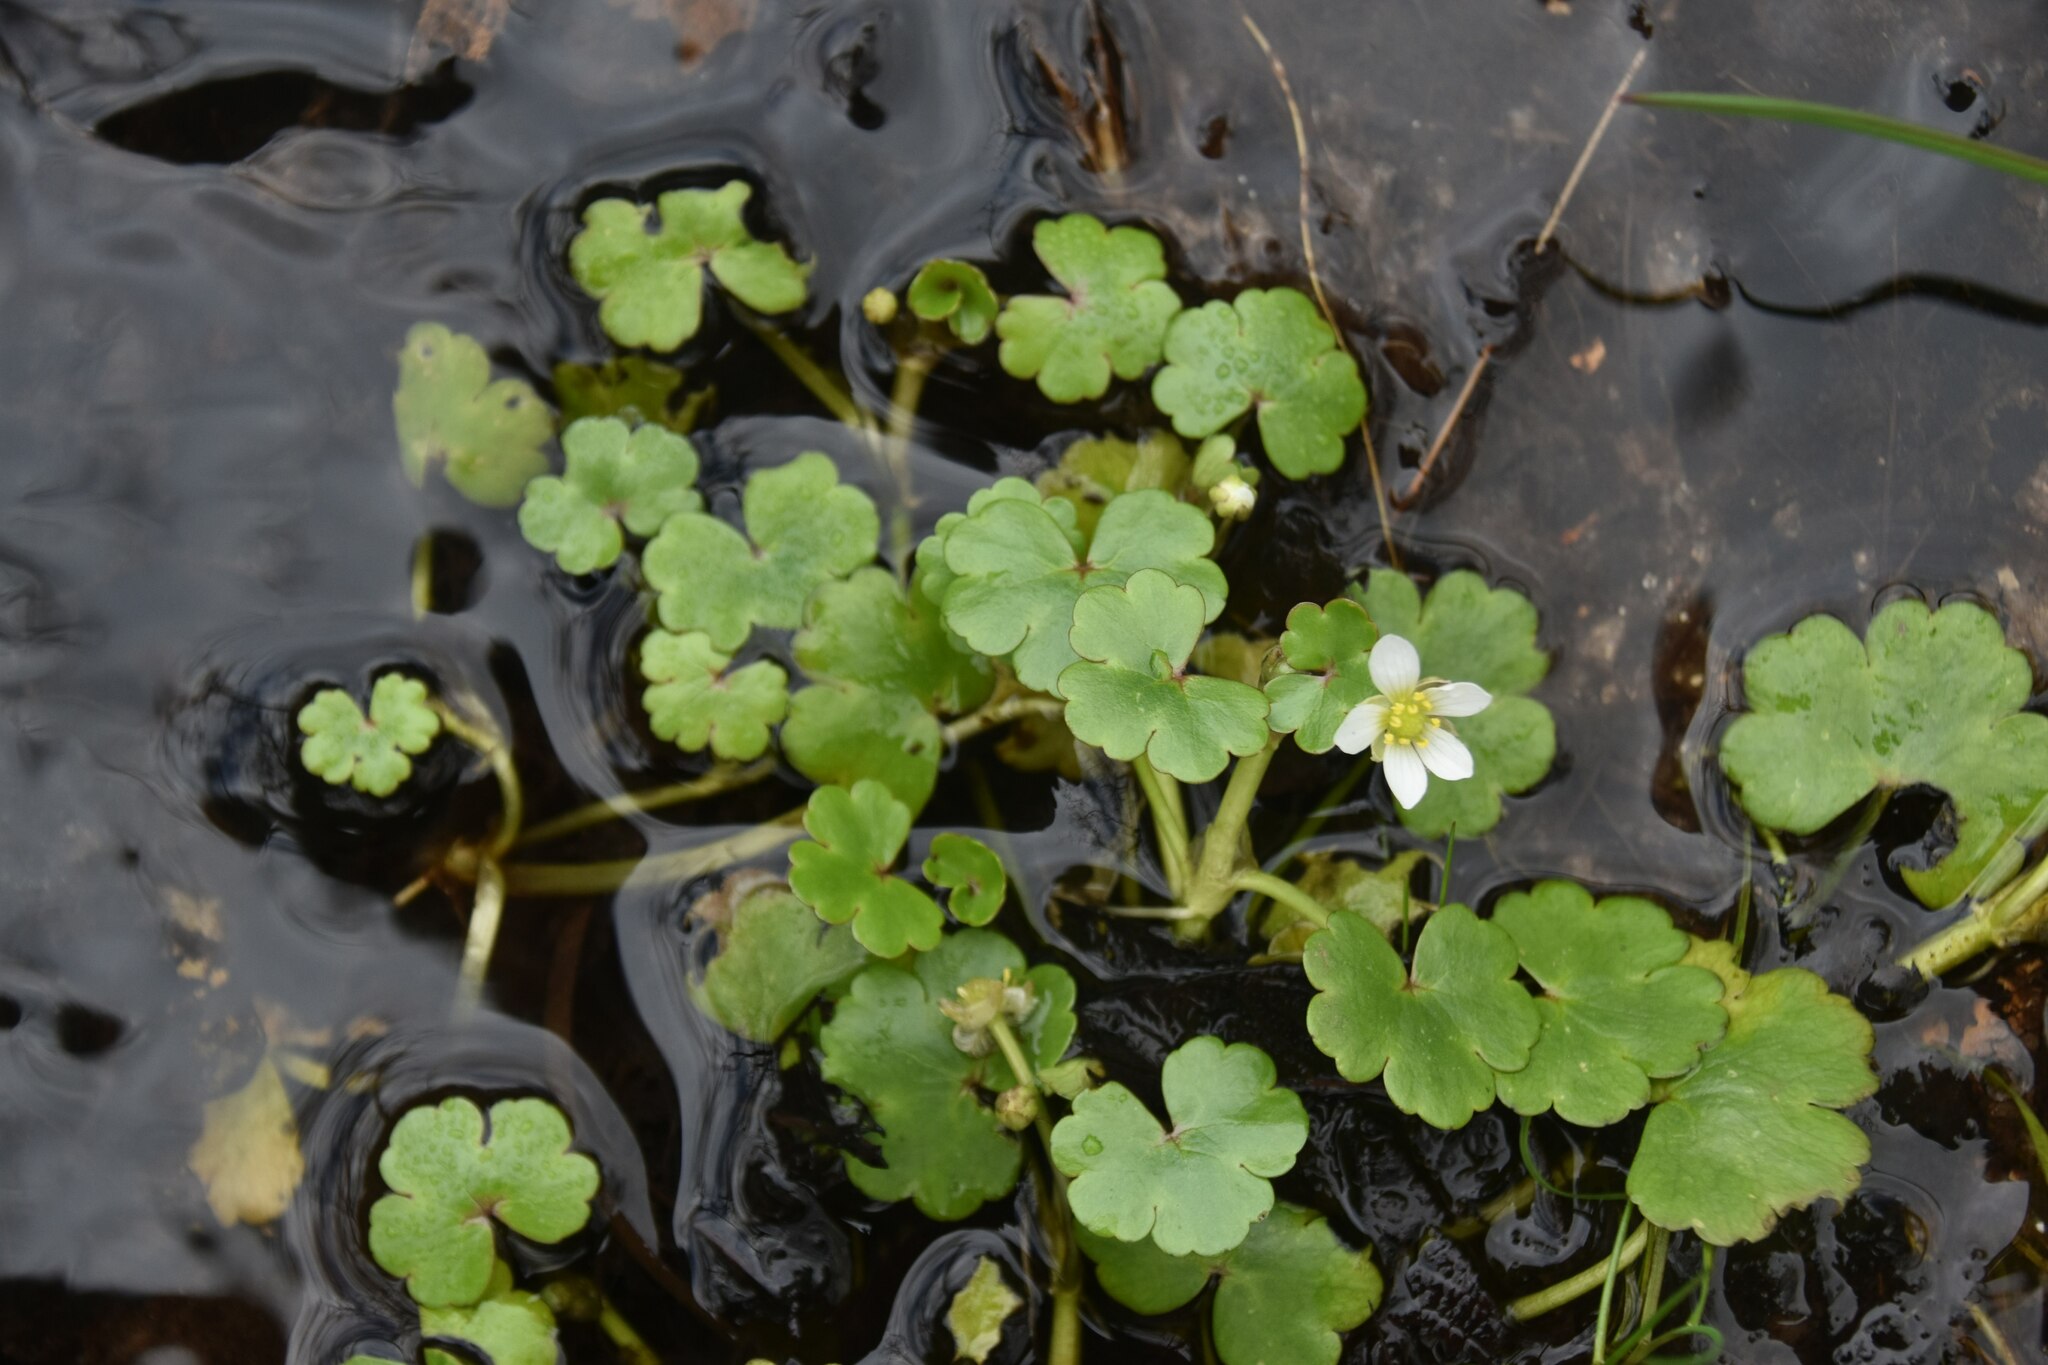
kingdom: Plantae
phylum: Tracheophyta
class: Magnoliopsida
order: Ranunculales
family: Ranunculaceae
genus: Ranunculus
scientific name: Ranunculus omiophyllus
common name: Round-leaved crowfoot
